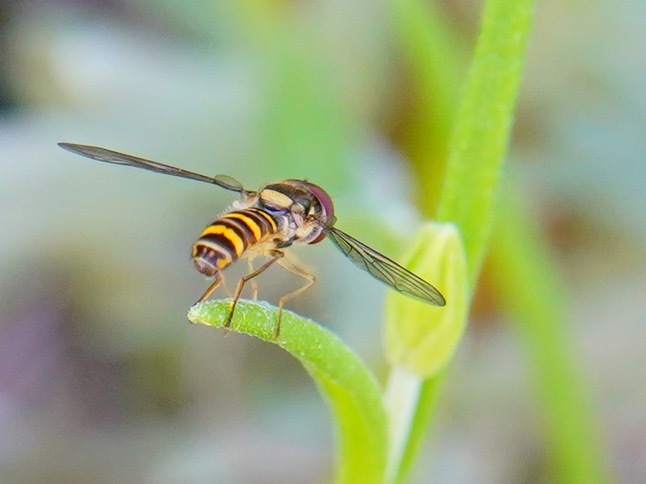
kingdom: Animalia
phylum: Arthropoda
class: Insecta
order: Diptera
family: Syrphidae
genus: Fazia
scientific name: Fazia micrura
